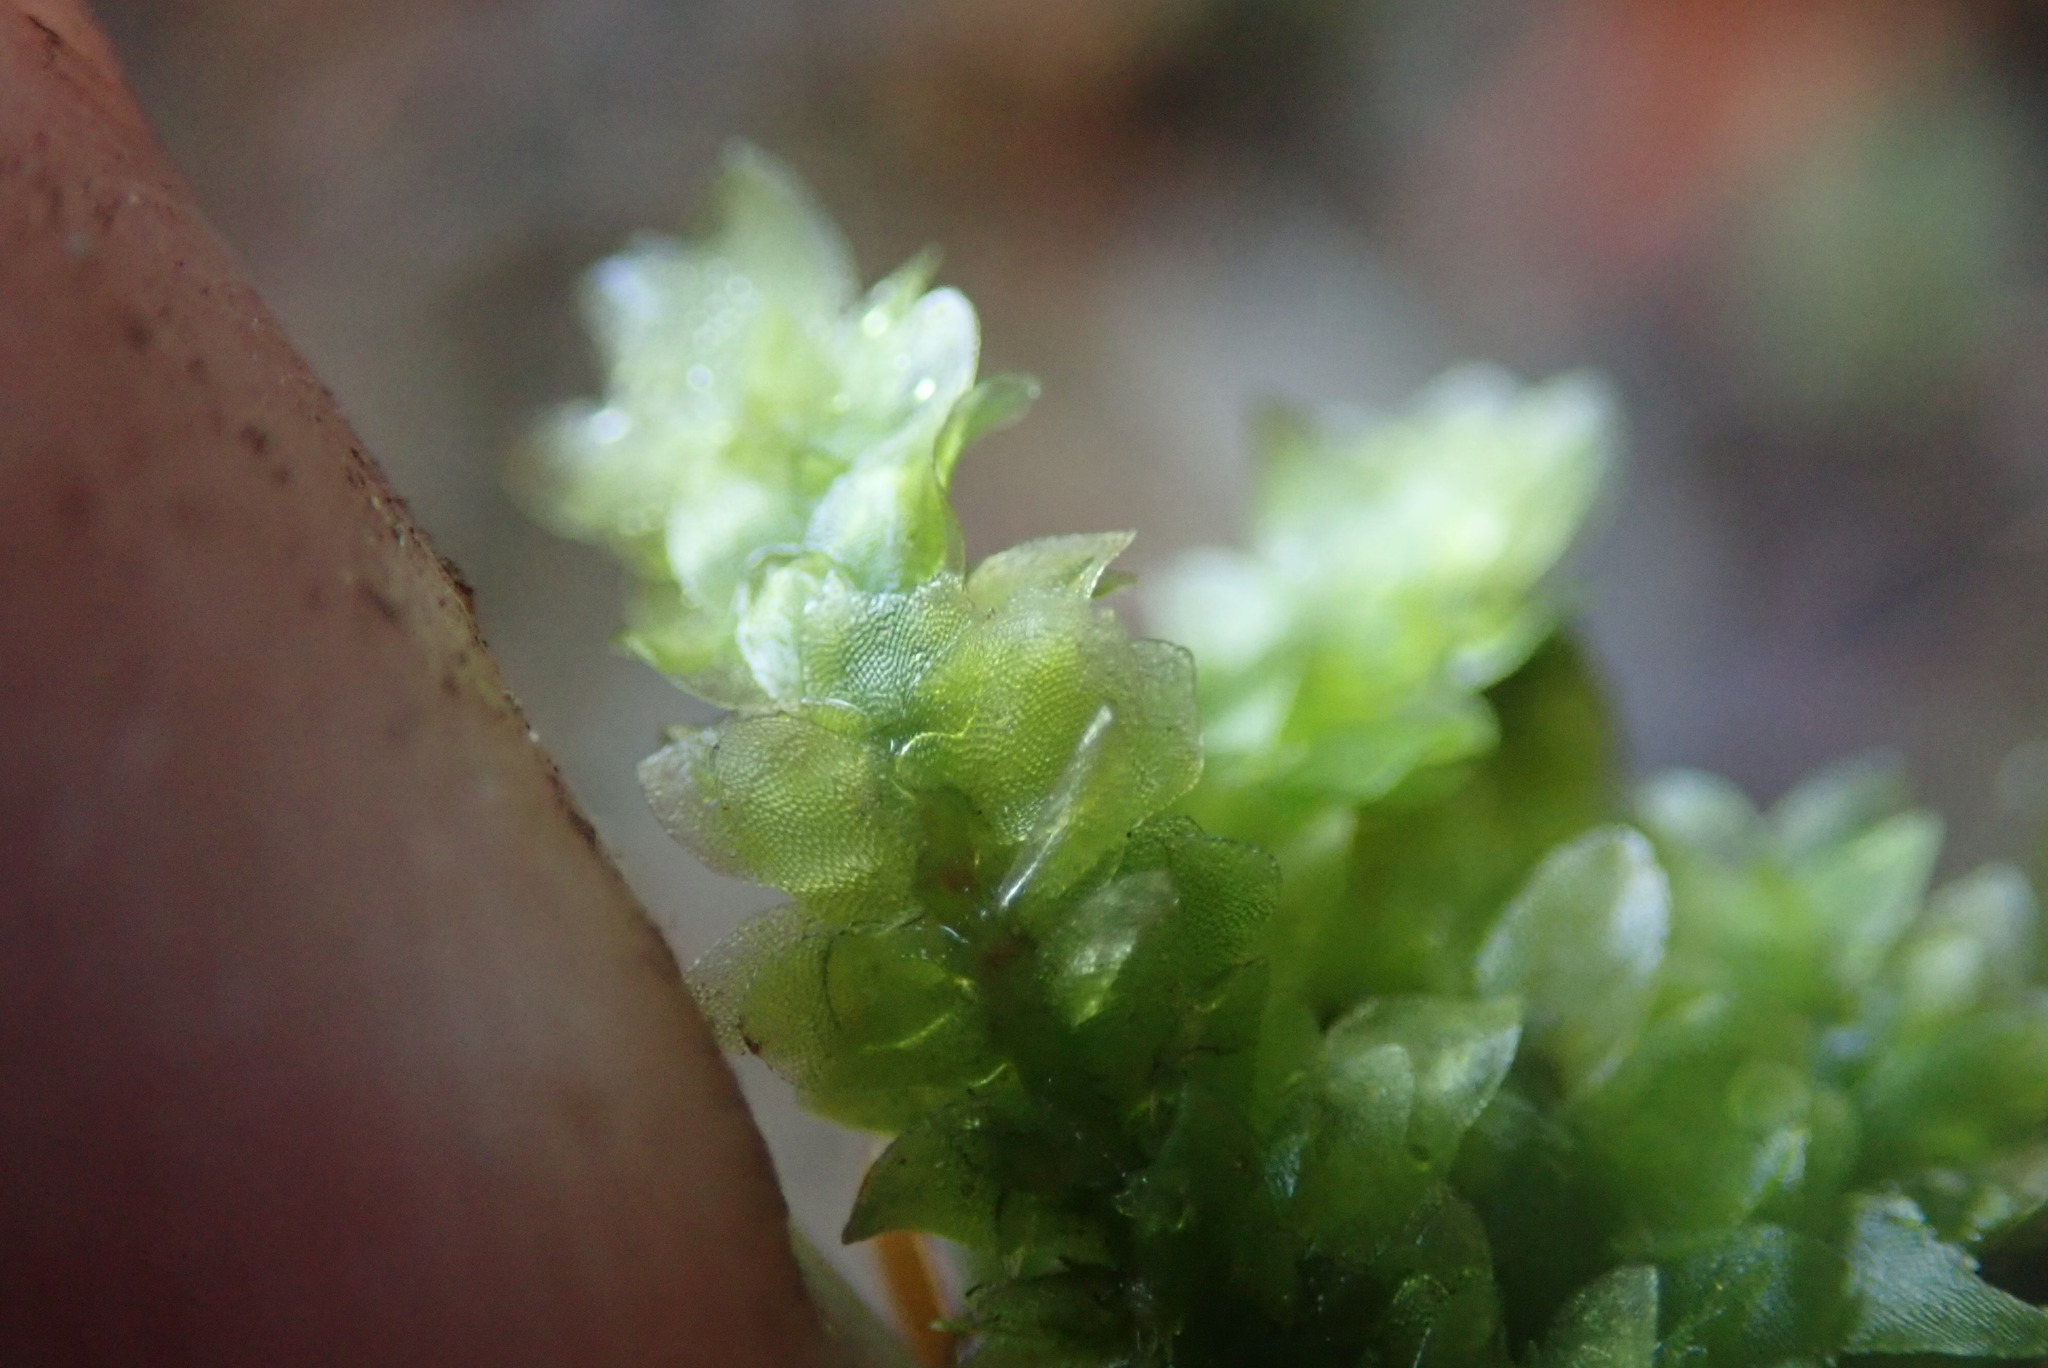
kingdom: Plantae
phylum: Bryophyta
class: Bryopsida
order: Hookeriales
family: Hookeriaceae
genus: Hookeria
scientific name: Hookeria lucens
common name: Shining hookeria
